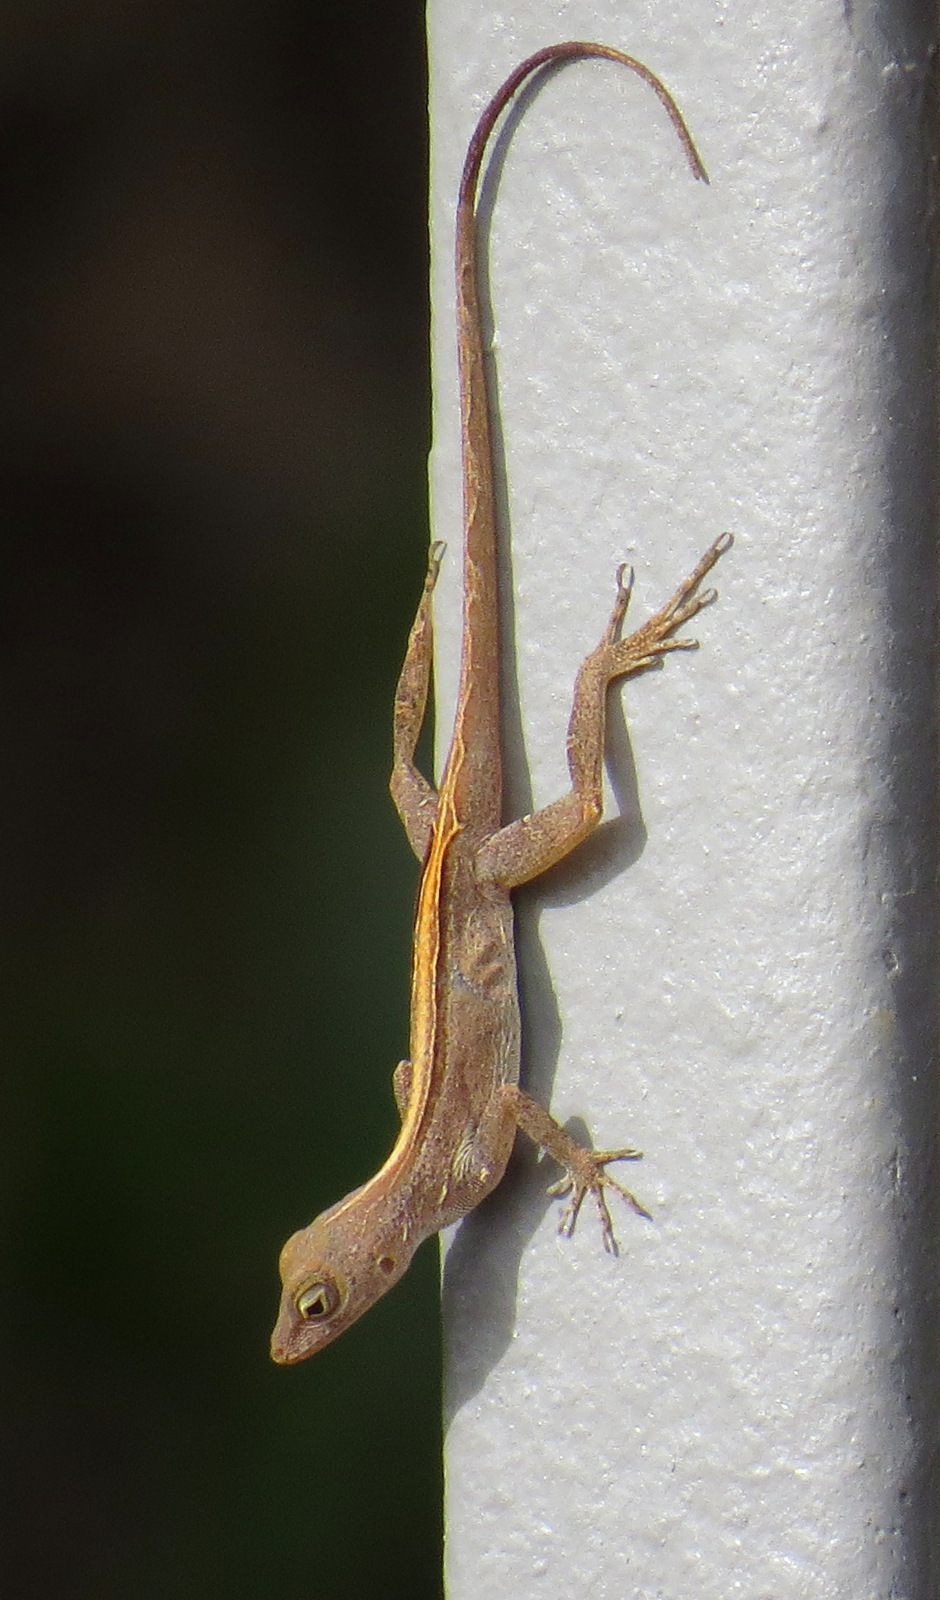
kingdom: Animalia
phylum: Chordata
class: Squamata
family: Dactyloidae
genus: Anolis
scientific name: Anolis cristatellus
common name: Crested anole
